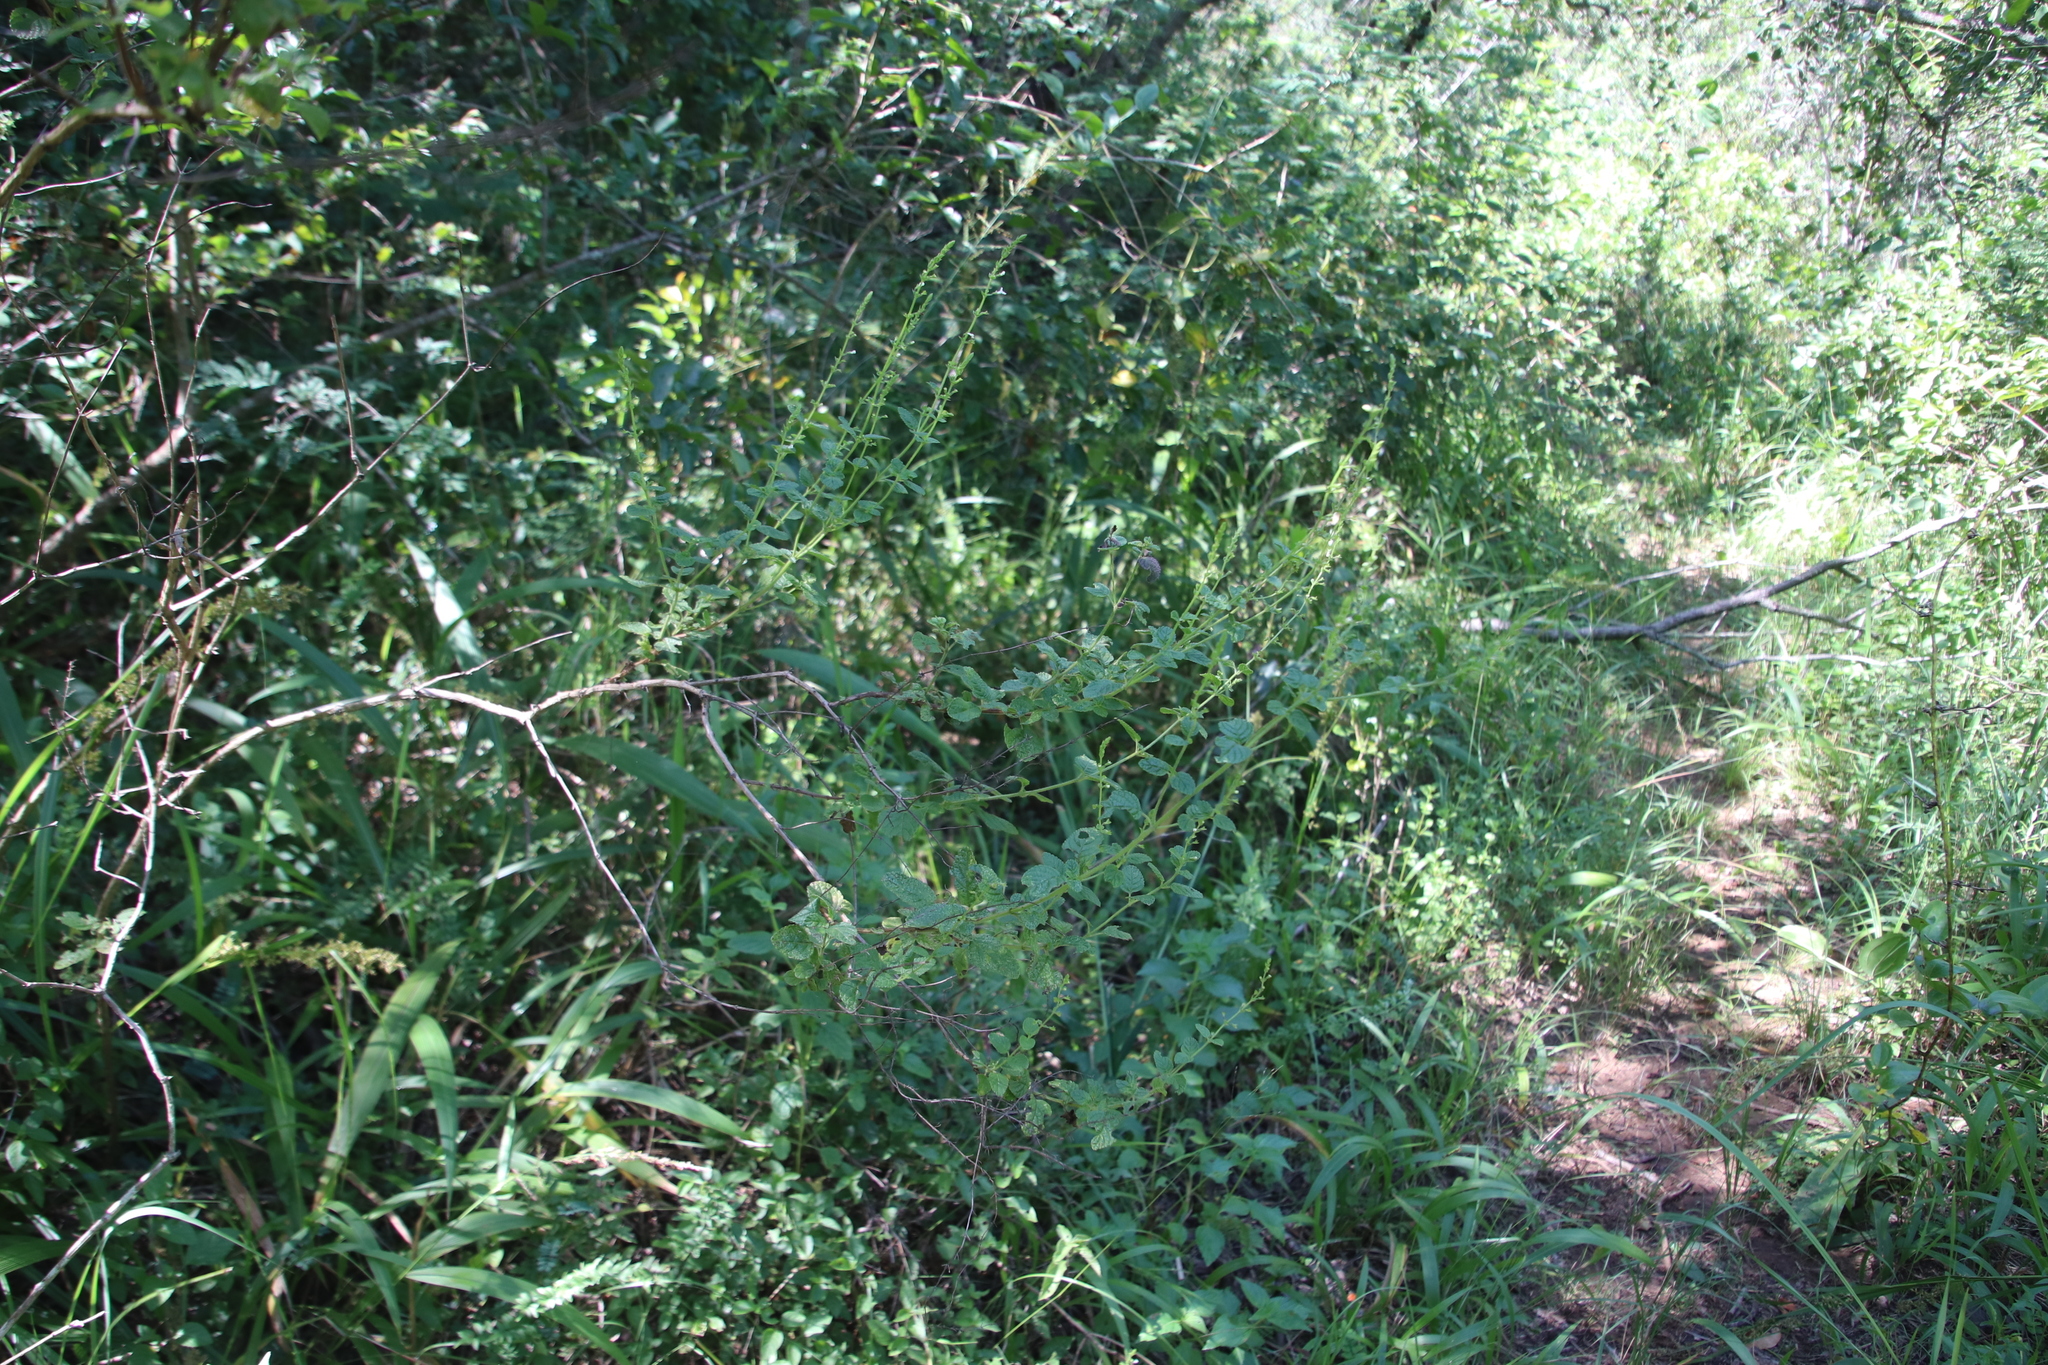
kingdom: Plantae
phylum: Tracheophyta
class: Magnoliopsida
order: Lamiales
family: Lamiaceae
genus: Endostemon
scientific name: Endostemon obtusifolius
